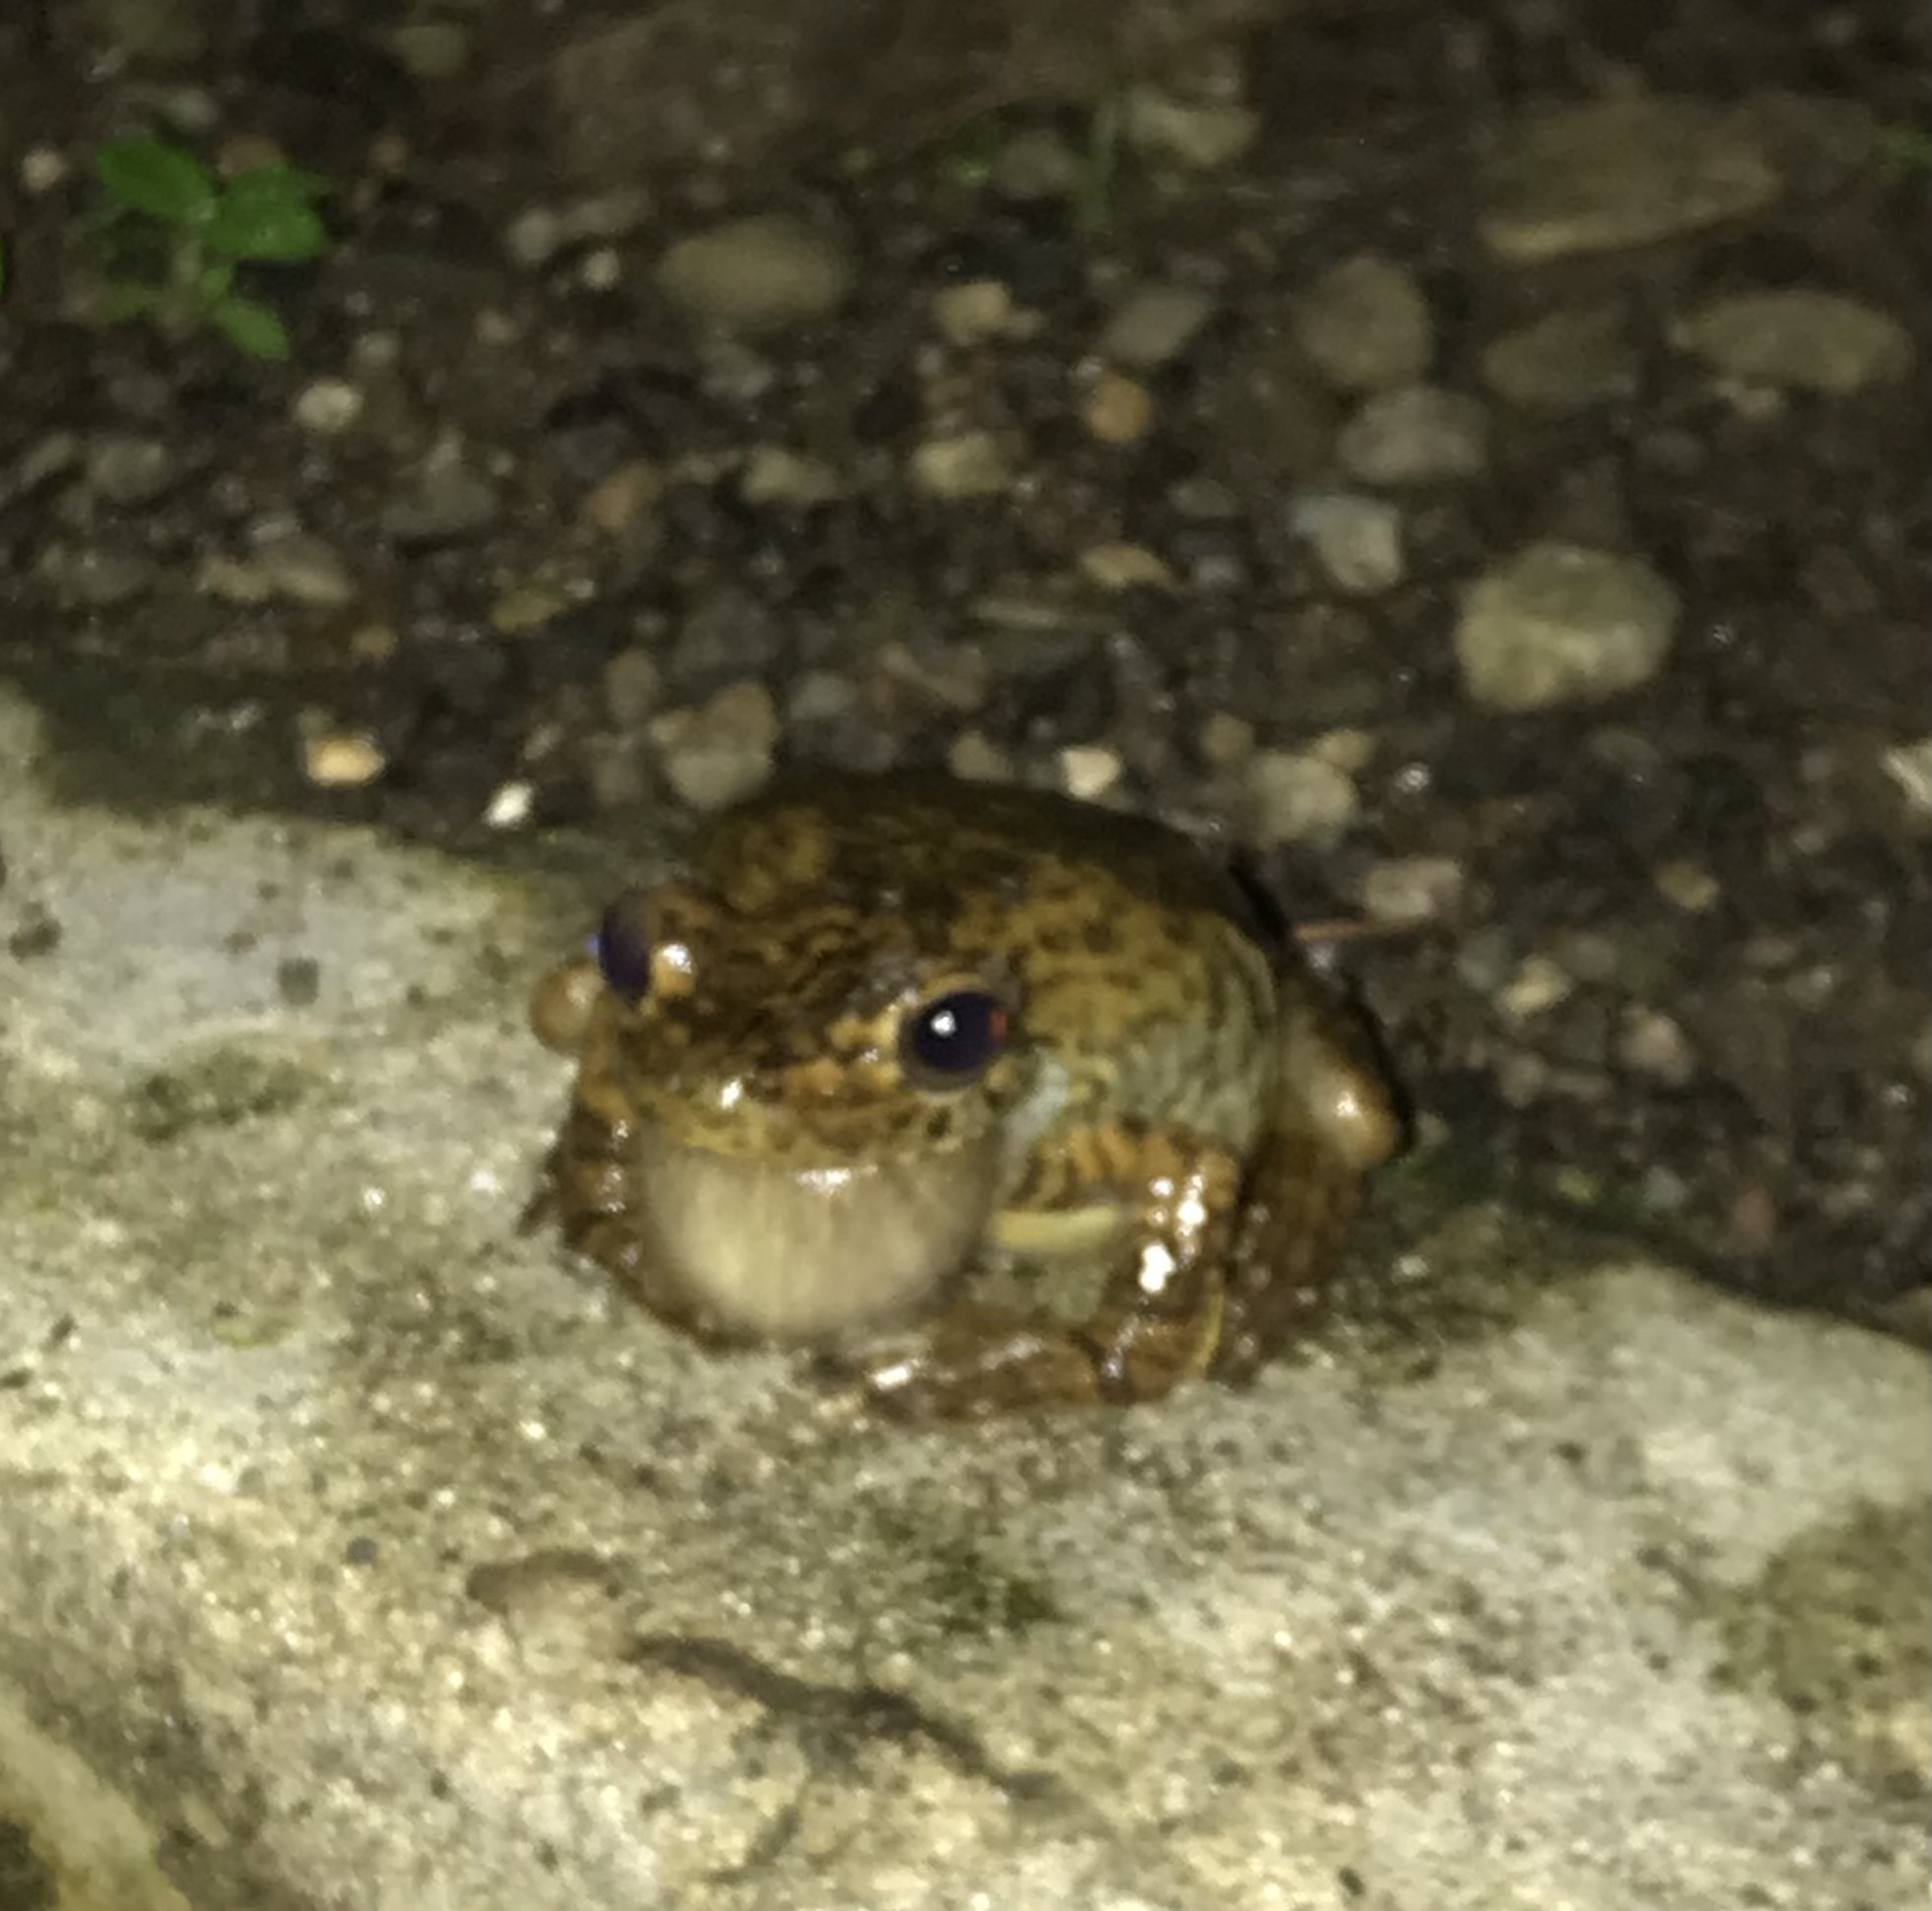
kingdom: Animalia
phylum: Chordata
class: Amphibia
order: Anura
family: Hylidae
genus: Boana
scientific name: Boana rosenbergi
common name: Rosenberg´s gladiator treefrog
